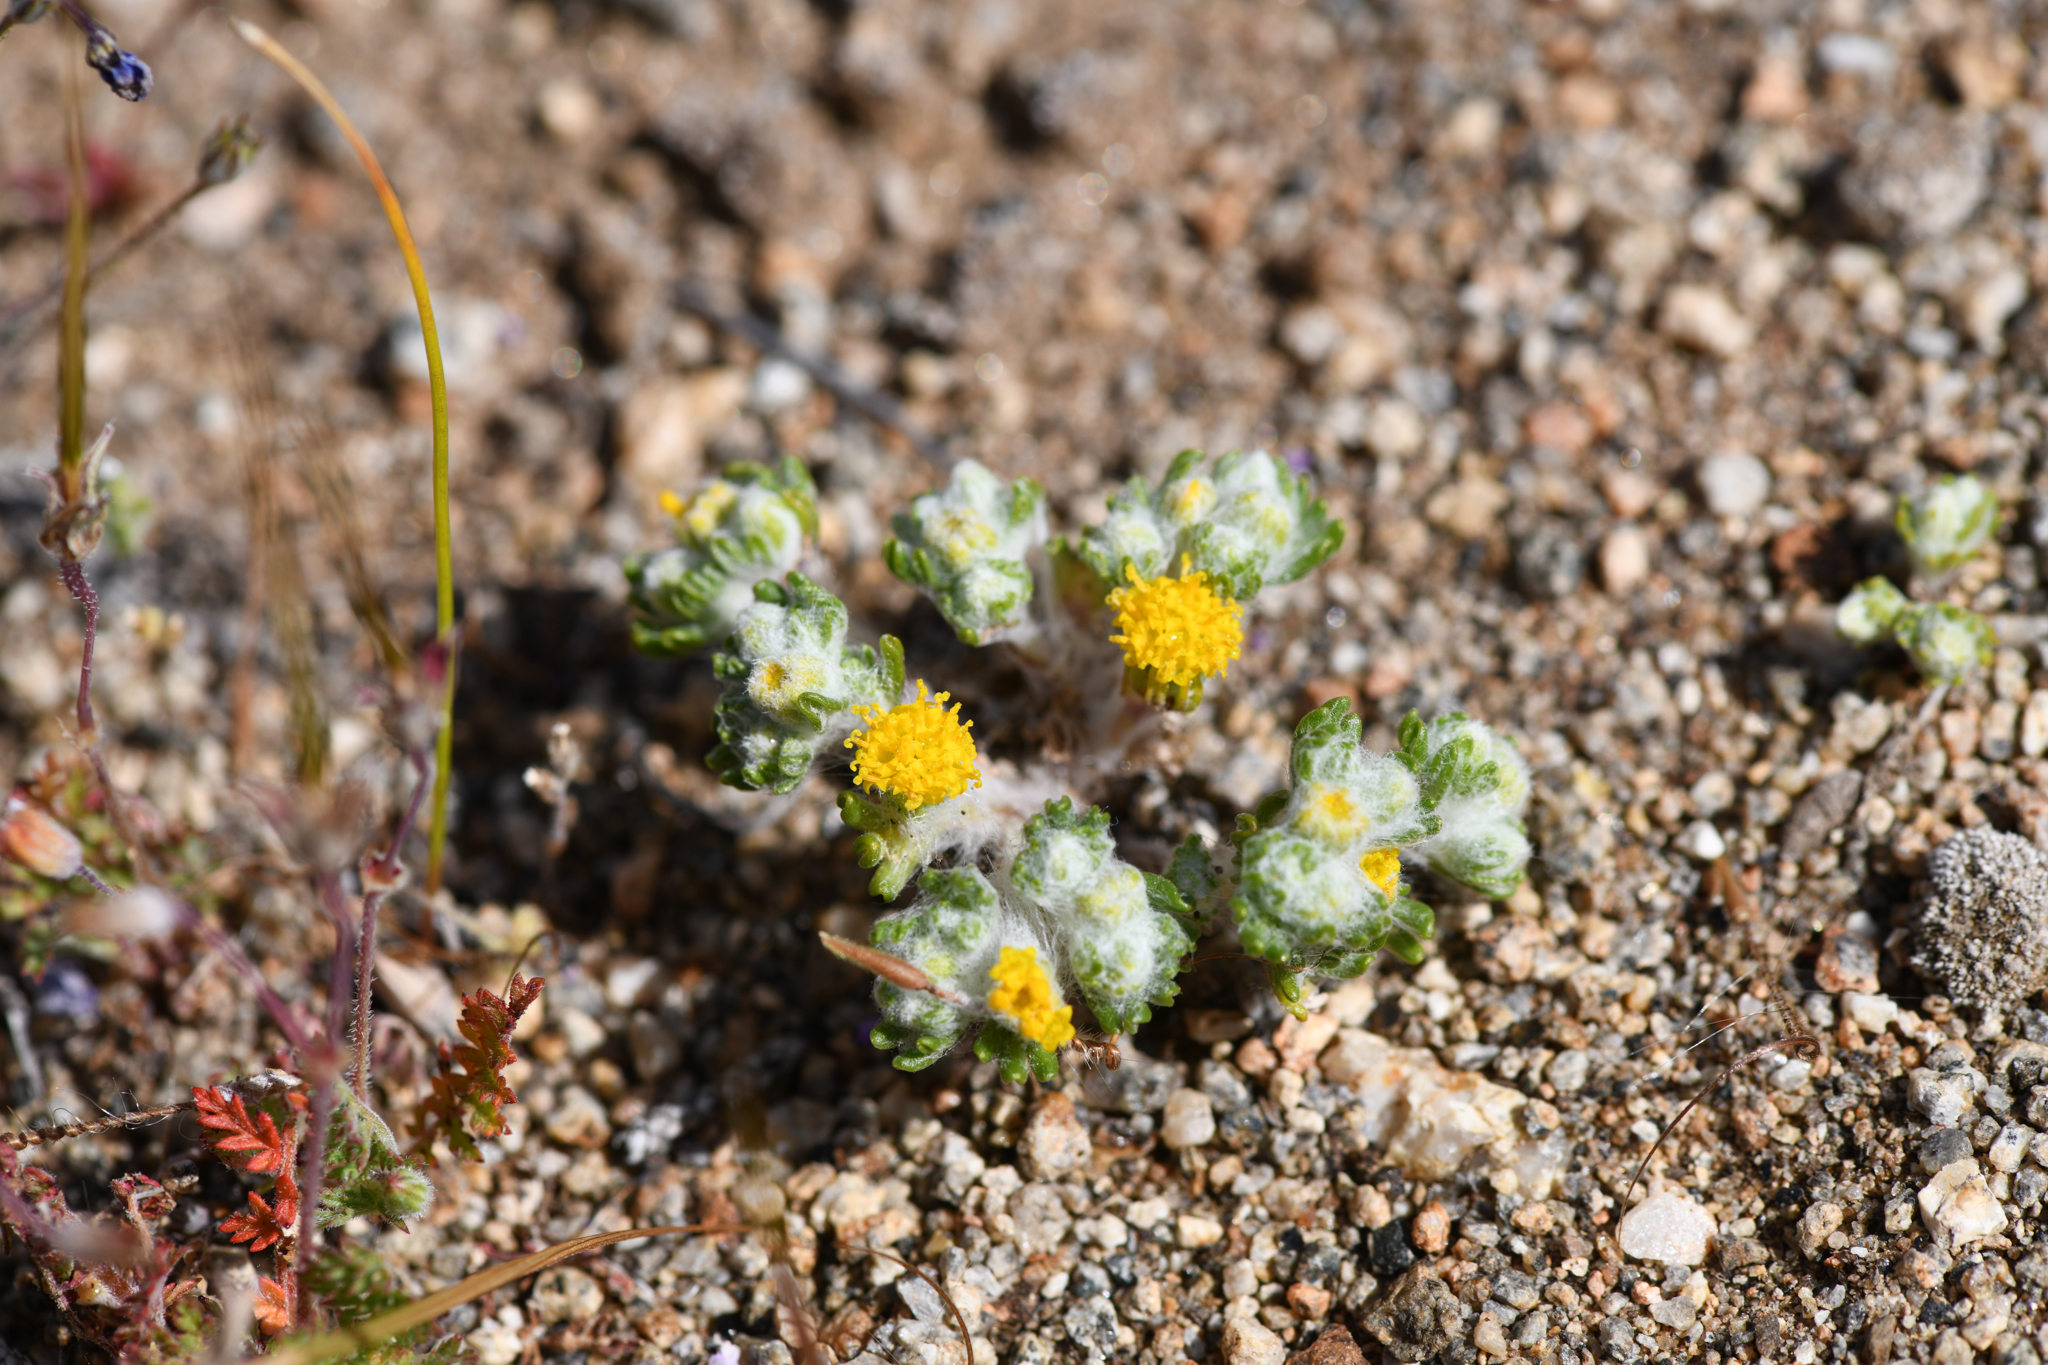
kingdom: Plantae
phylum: Tracheophyta
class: Magnoliopsida
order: Asterales
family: Asteraceae
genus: Eriophyllum
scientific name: Eriophyllum pringlei
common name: Pringle's woolly-sunflower
